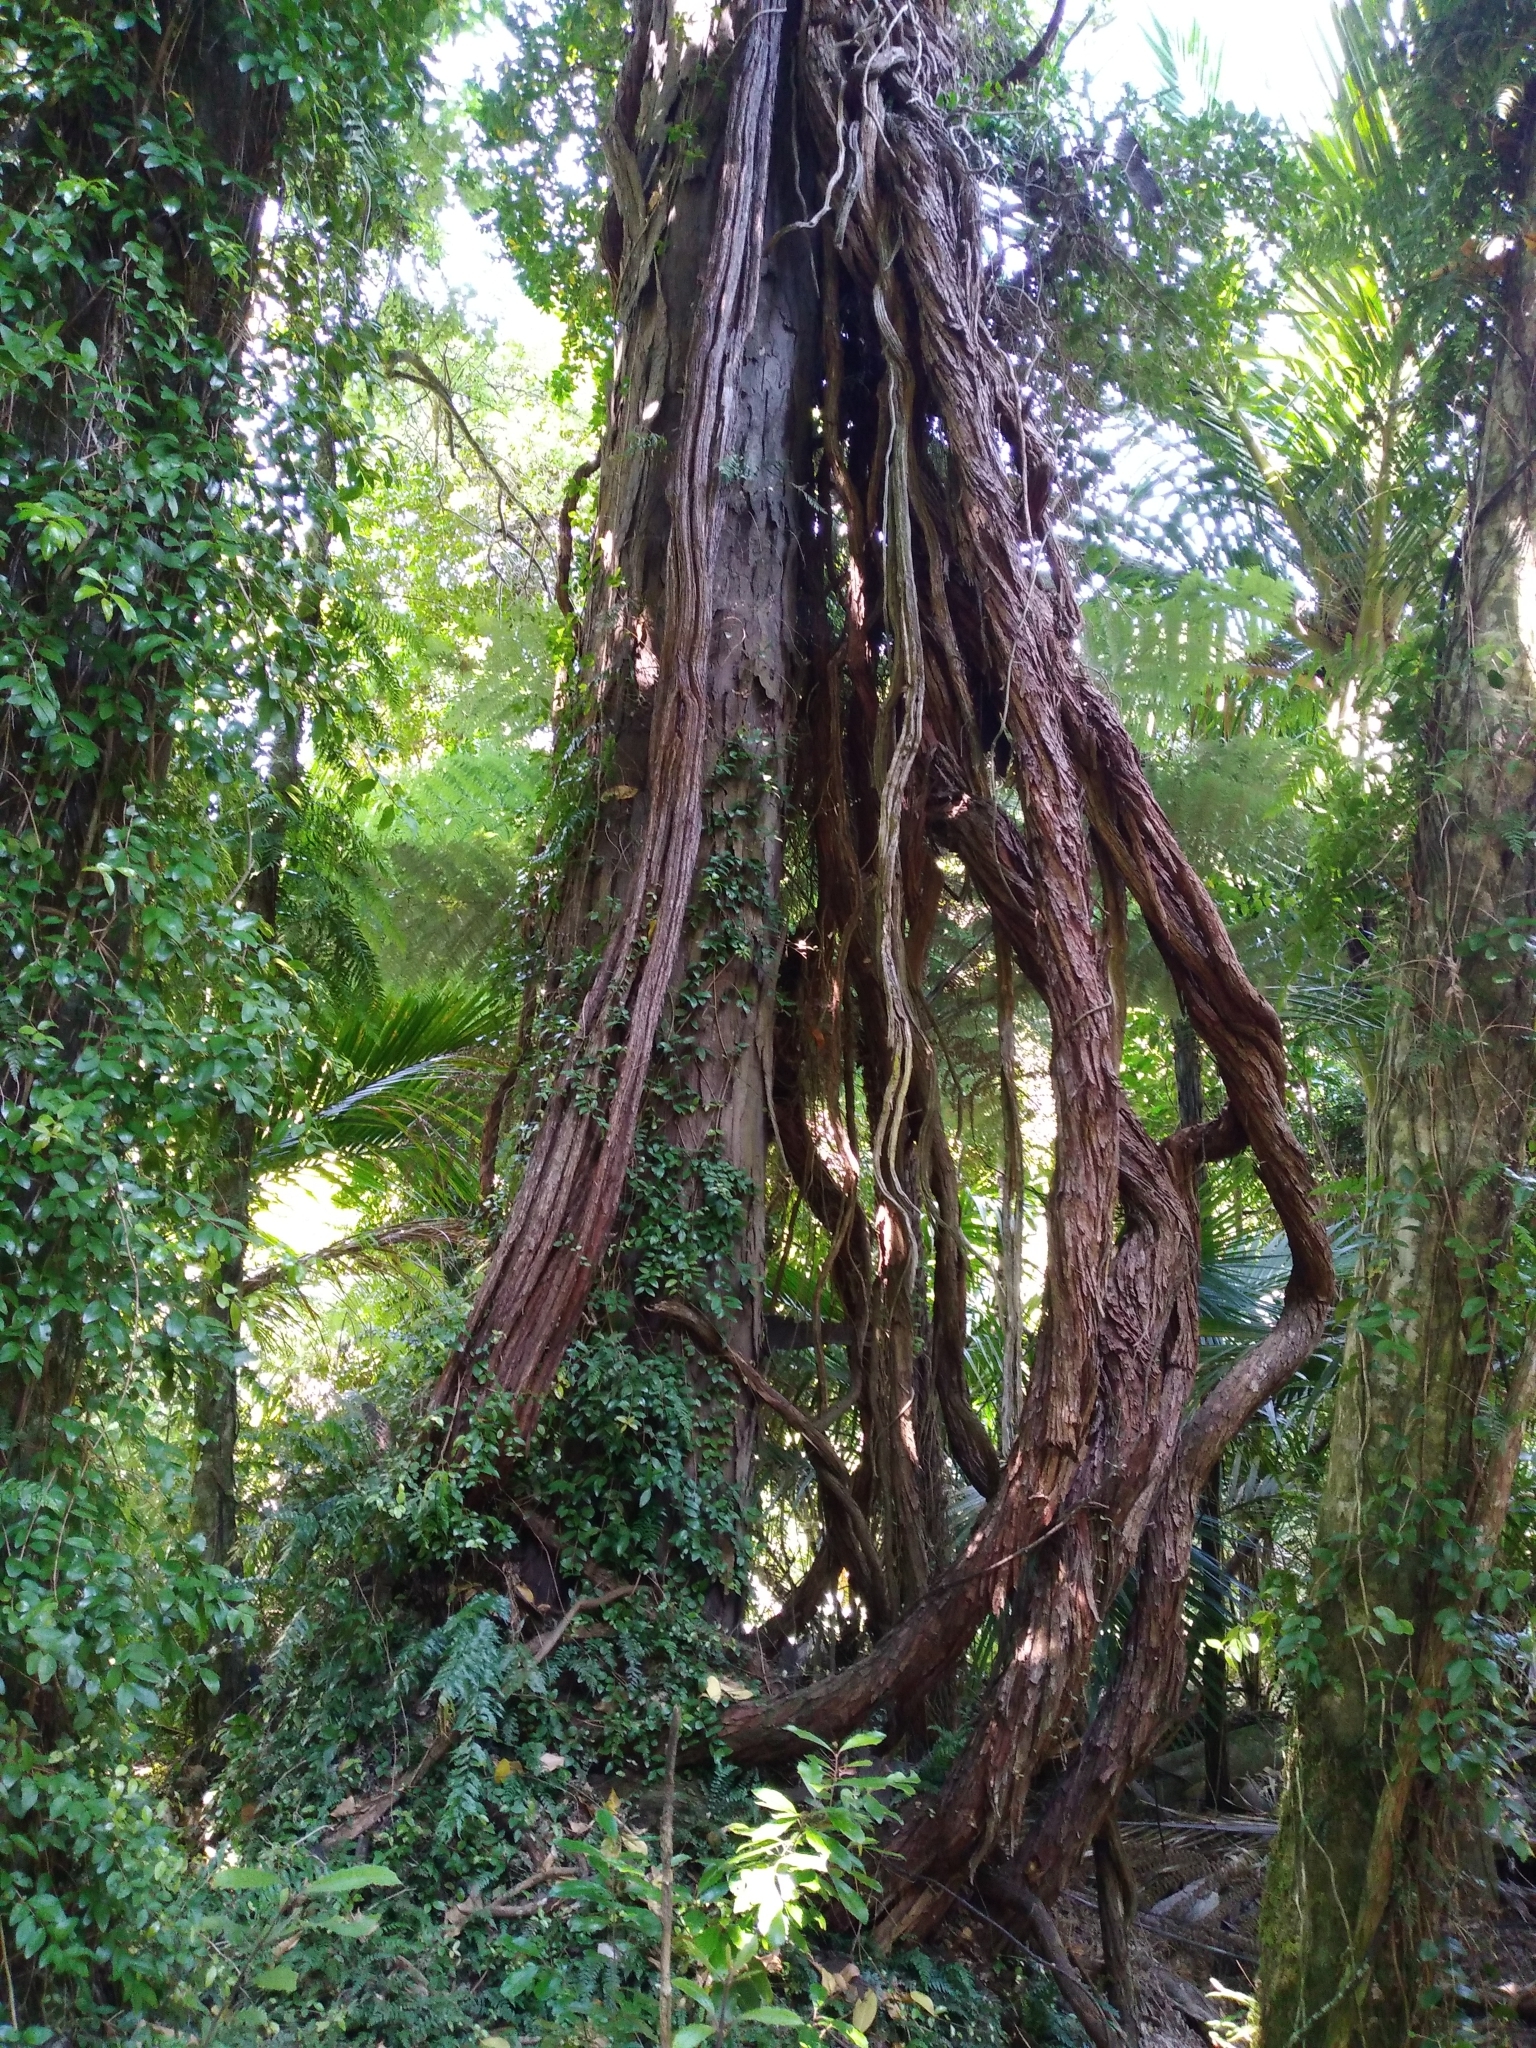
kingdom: Plantae
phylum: Tracheophyta
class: Magnoliopsida
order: Myrtales
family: Myrtaceae
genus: Metrosideros
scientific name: Metrosideros robusta
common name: Northern rata
